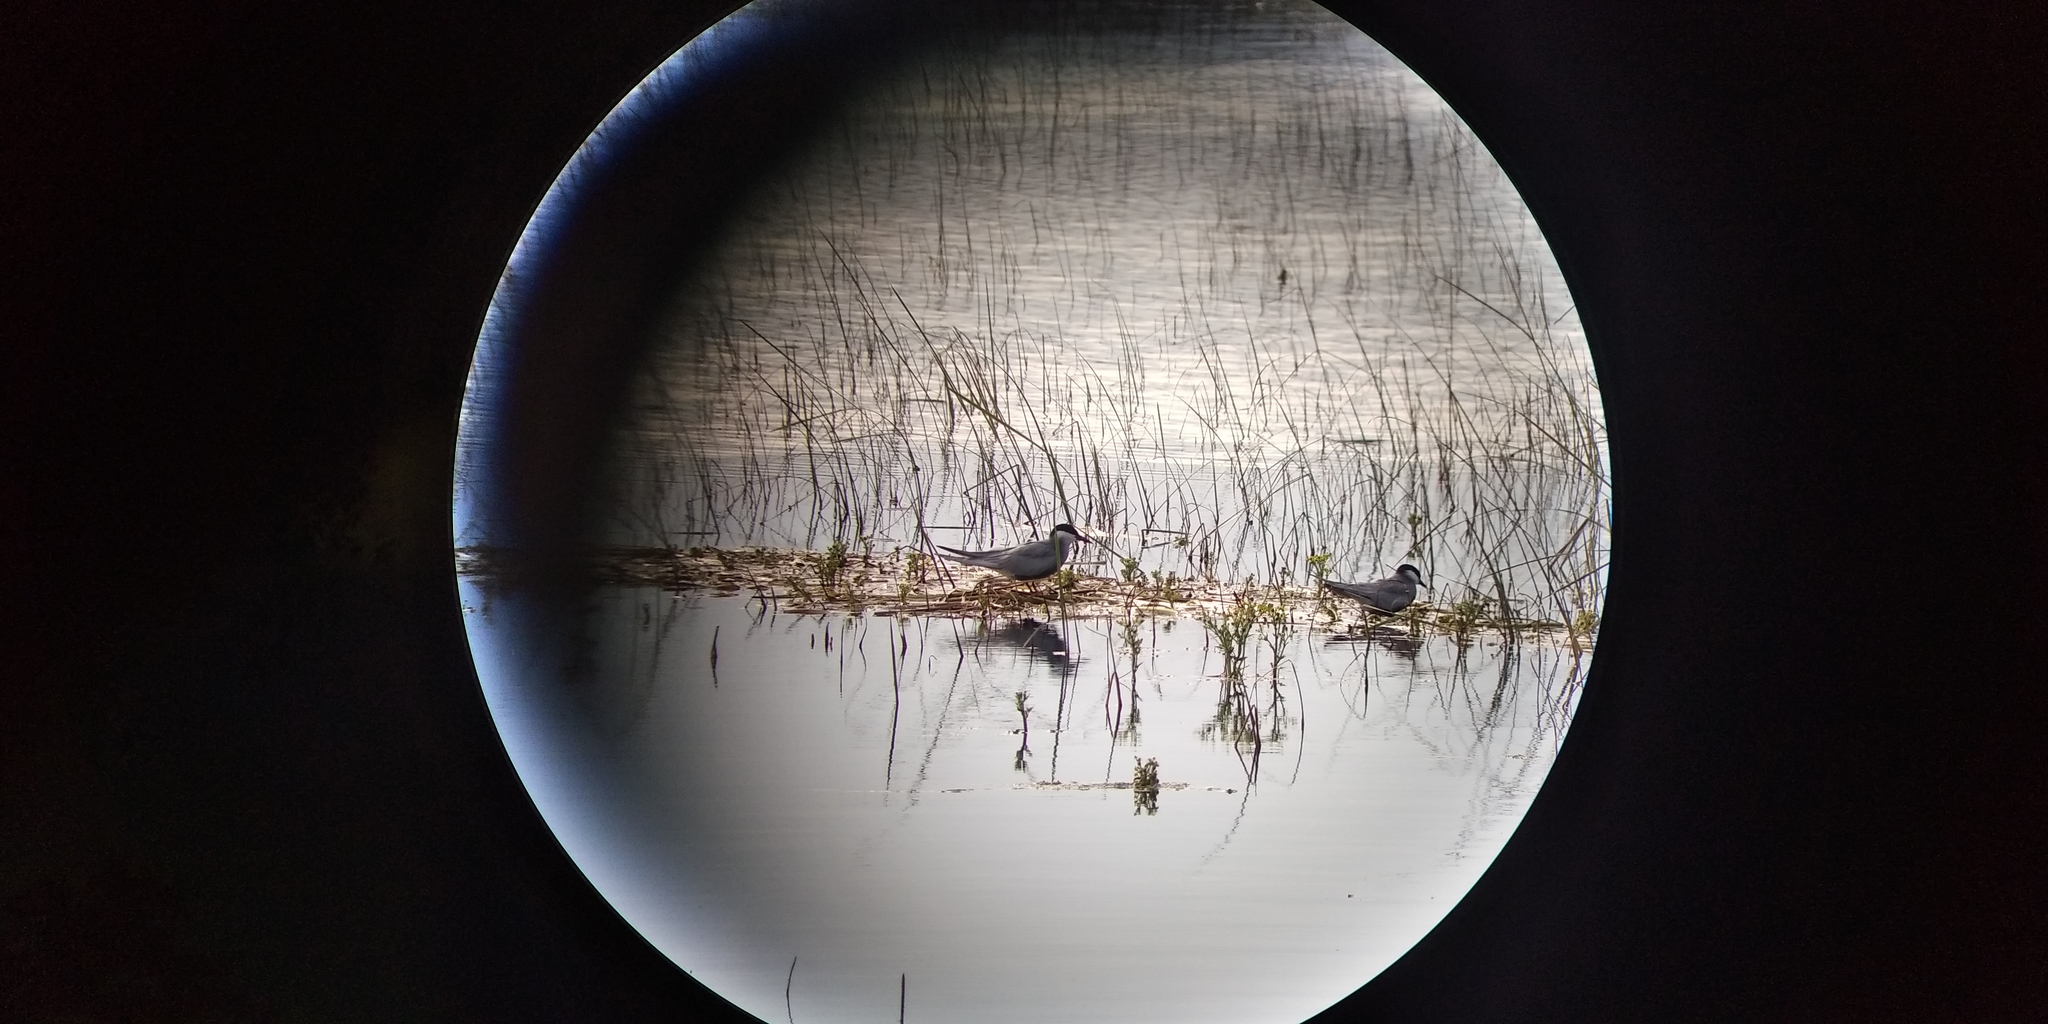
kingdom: Animalia
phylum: Chordata
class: Aves
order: Charadriiformes
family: Laridae
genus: Chlidonias
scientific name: Chlidonias hybrida
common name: Whiskered tern
